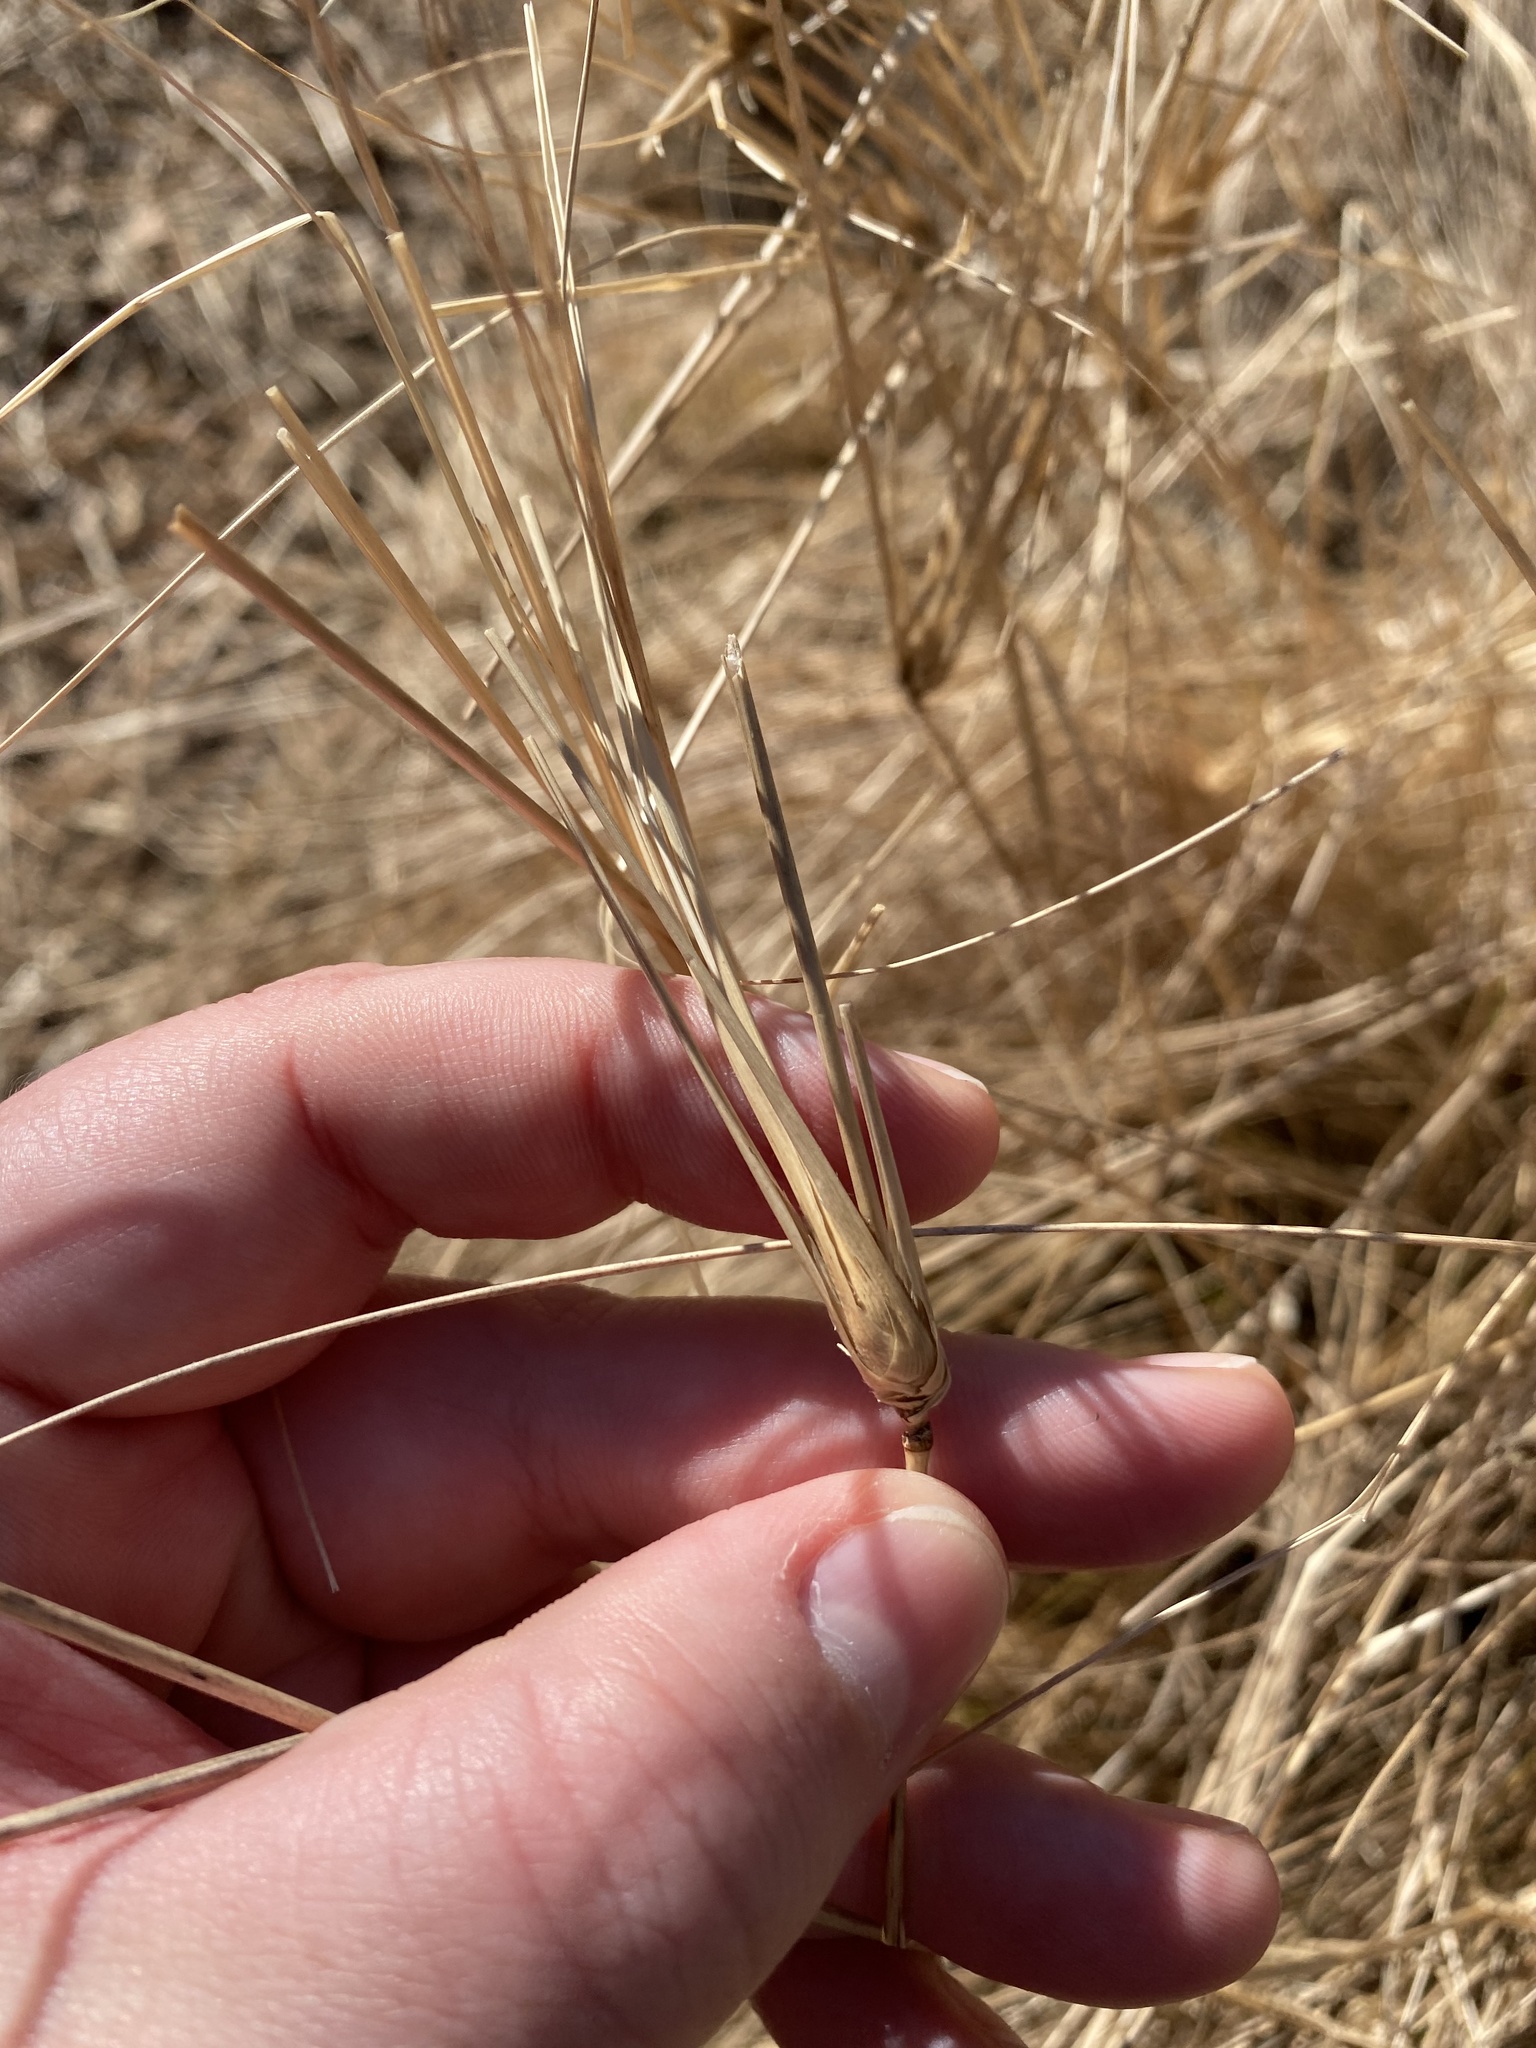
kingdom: Plantae
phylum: Tracheophyta
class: Liliopsida
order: Poales
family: Poaceae
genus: Eragrostis
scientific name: Eragrostis curvula
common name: African love-grass
